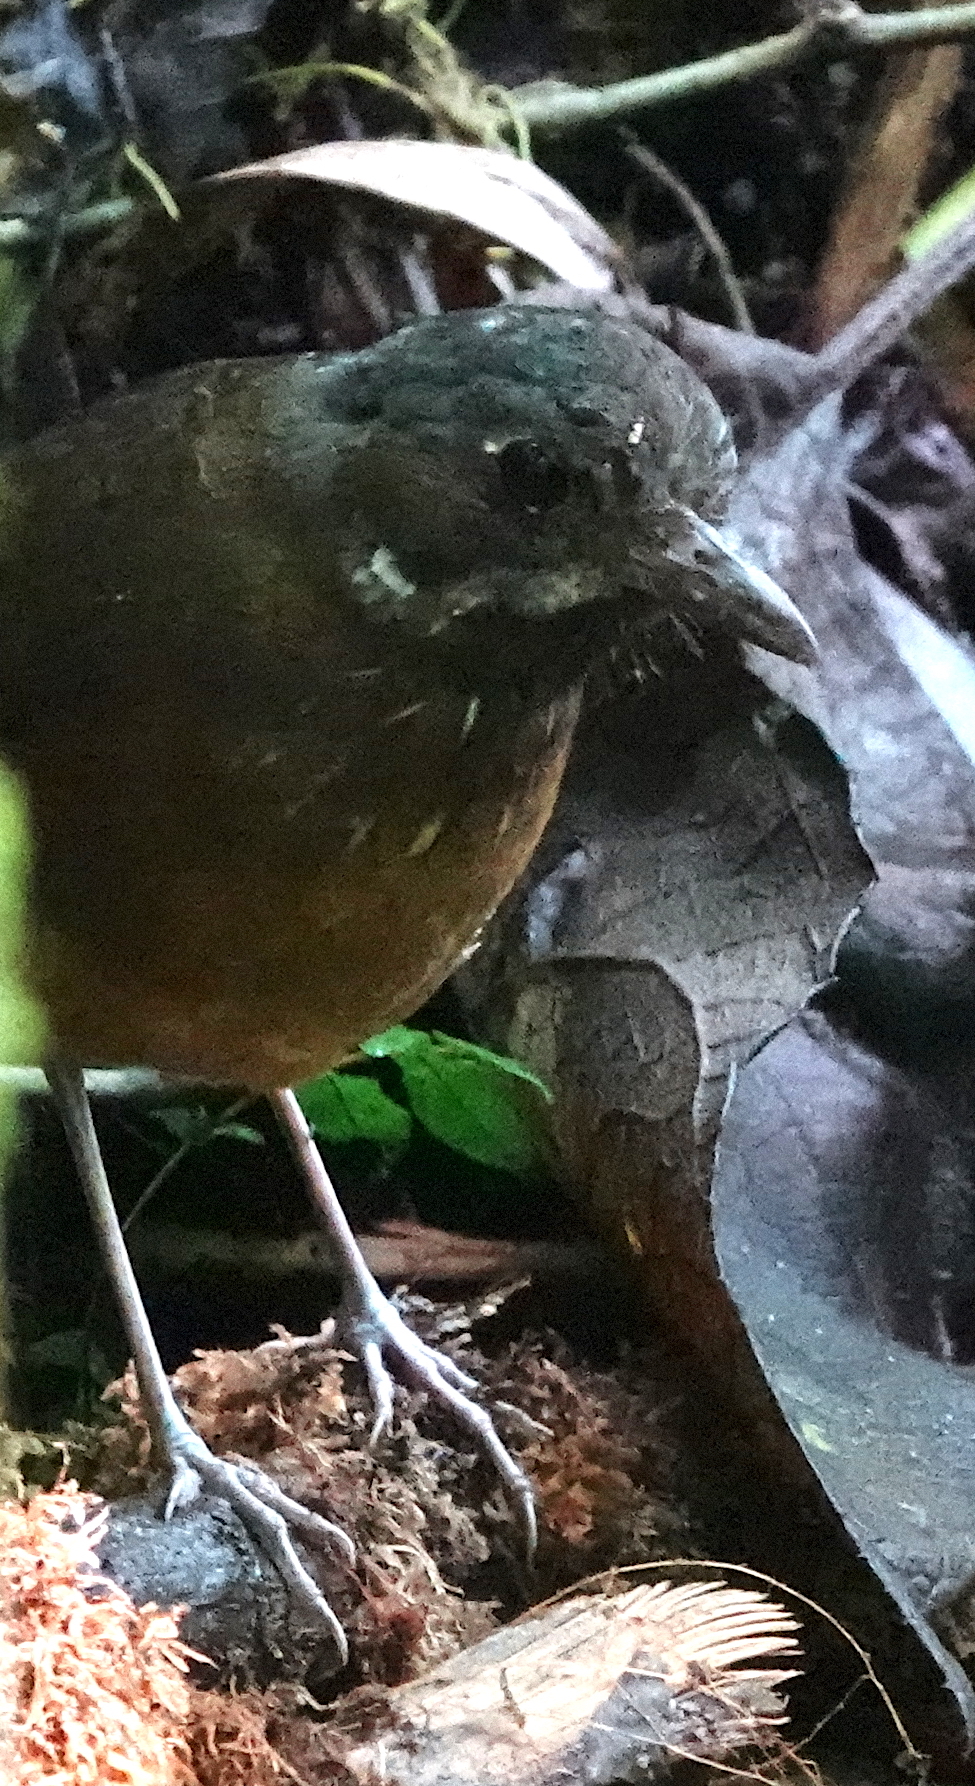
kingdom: Animalia
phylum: Chordata
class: Aves
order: Passeriformes
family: Grallariidae
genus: Grallaria
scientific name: Grallaria alleni
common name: Moustached antpitta
